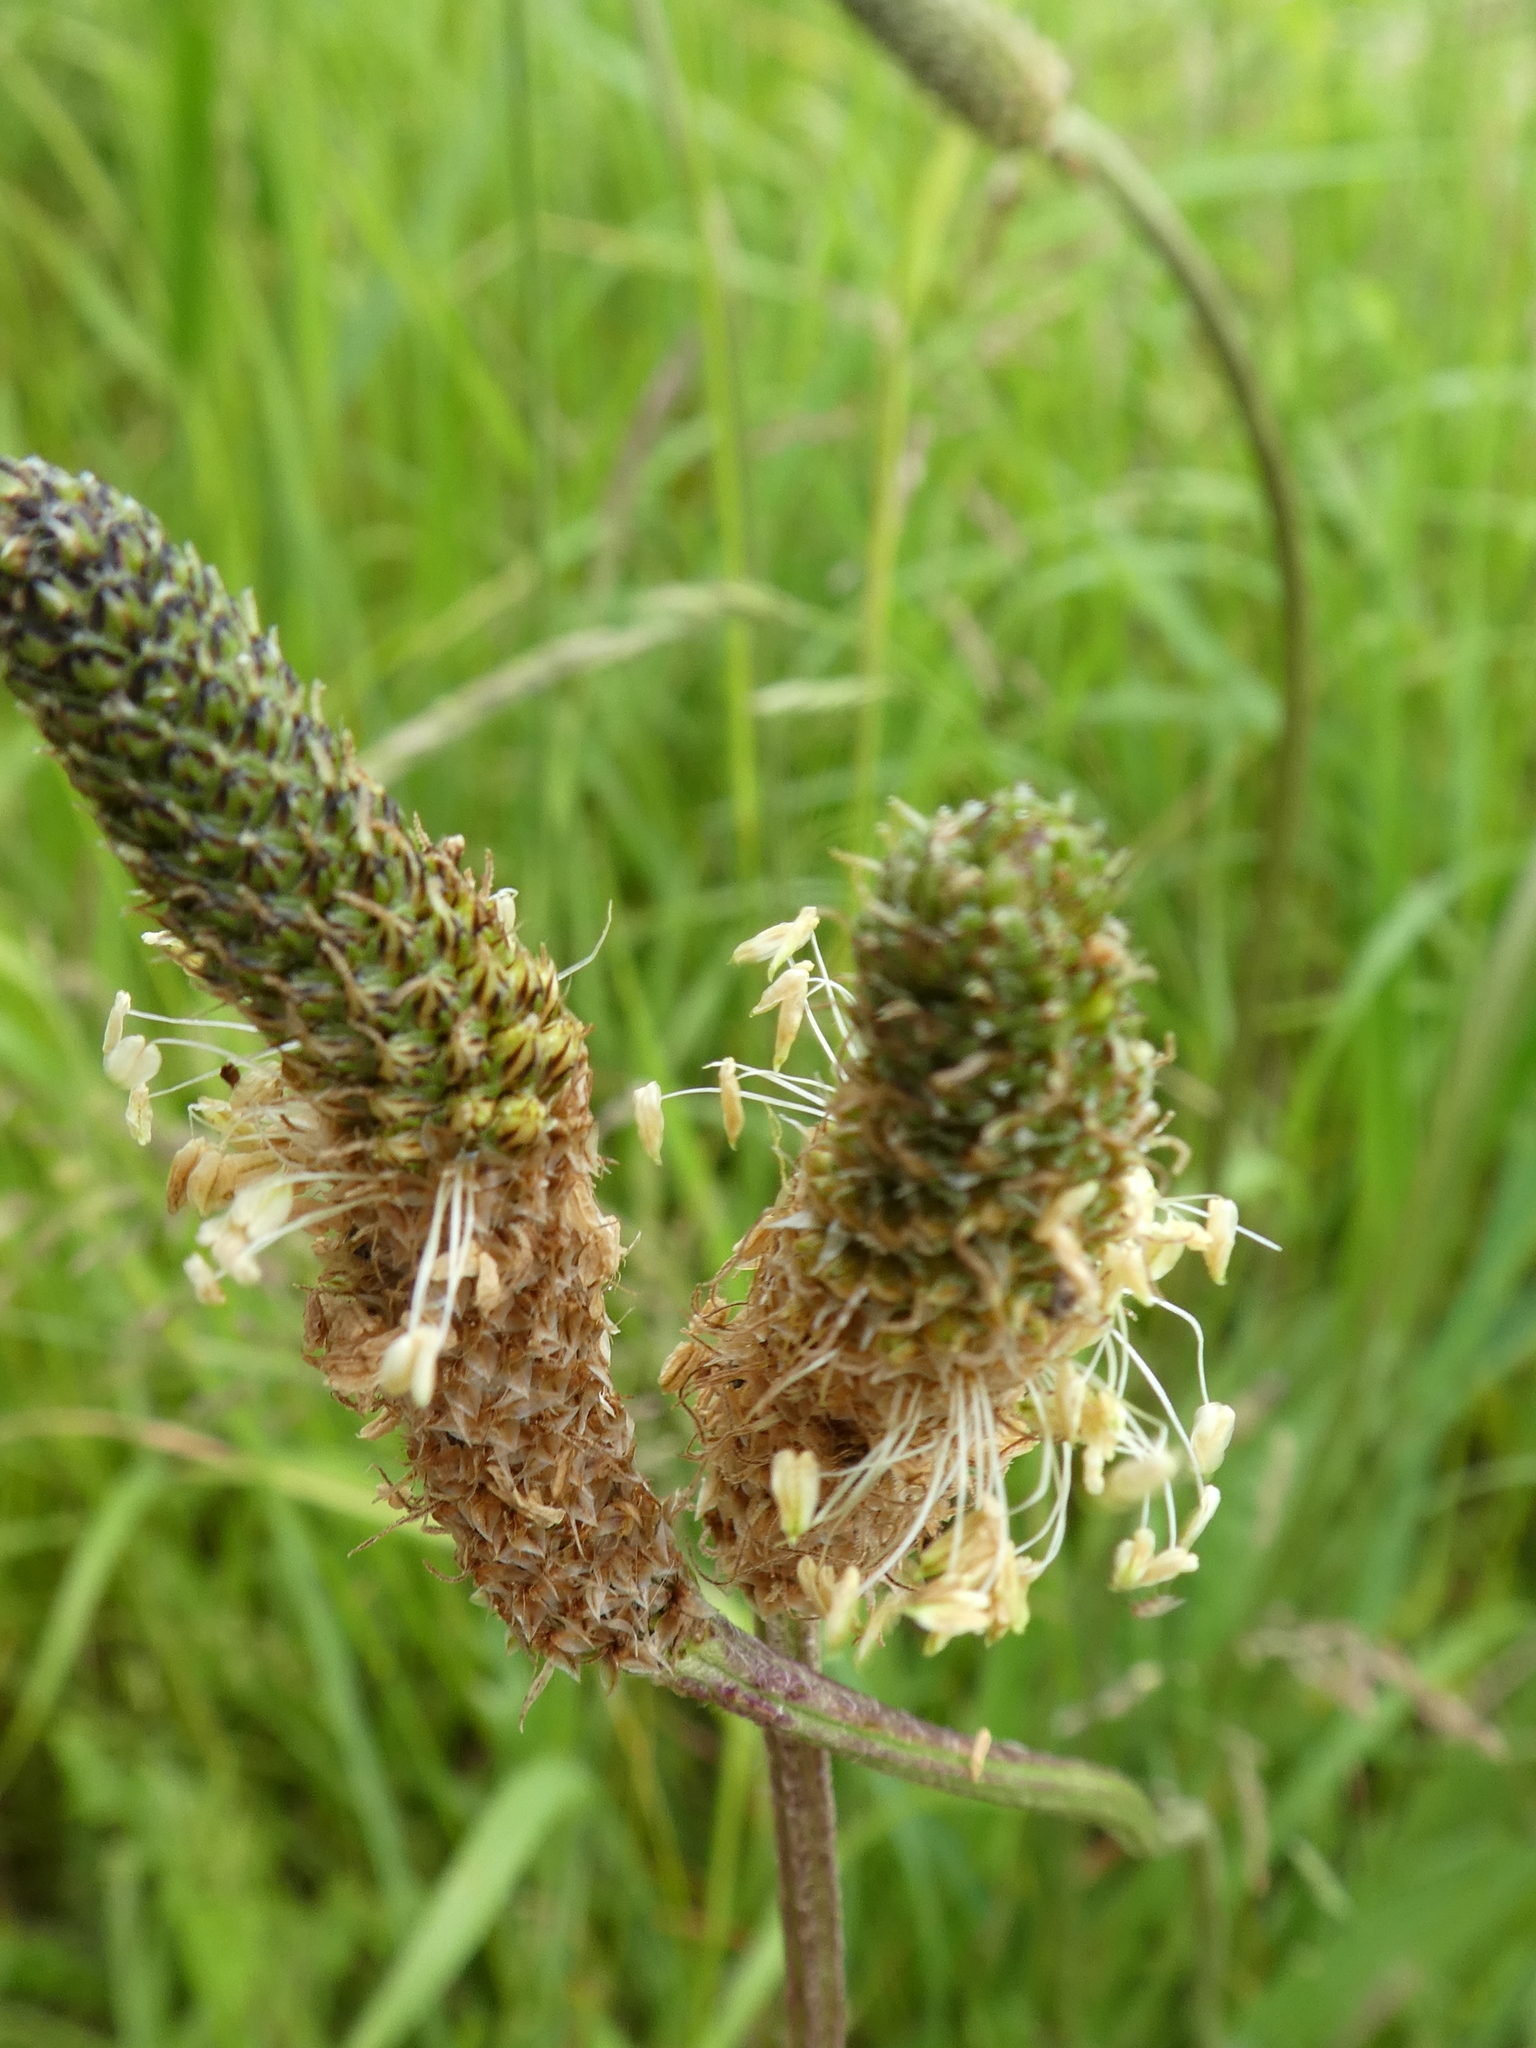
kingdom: Plantae
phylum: Tracheophyta
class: Magnoliopsida
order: Lamiales
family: Plantaginaceae
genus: Plantago
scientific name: Plantago lanceolata
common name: Ribwort plantain
